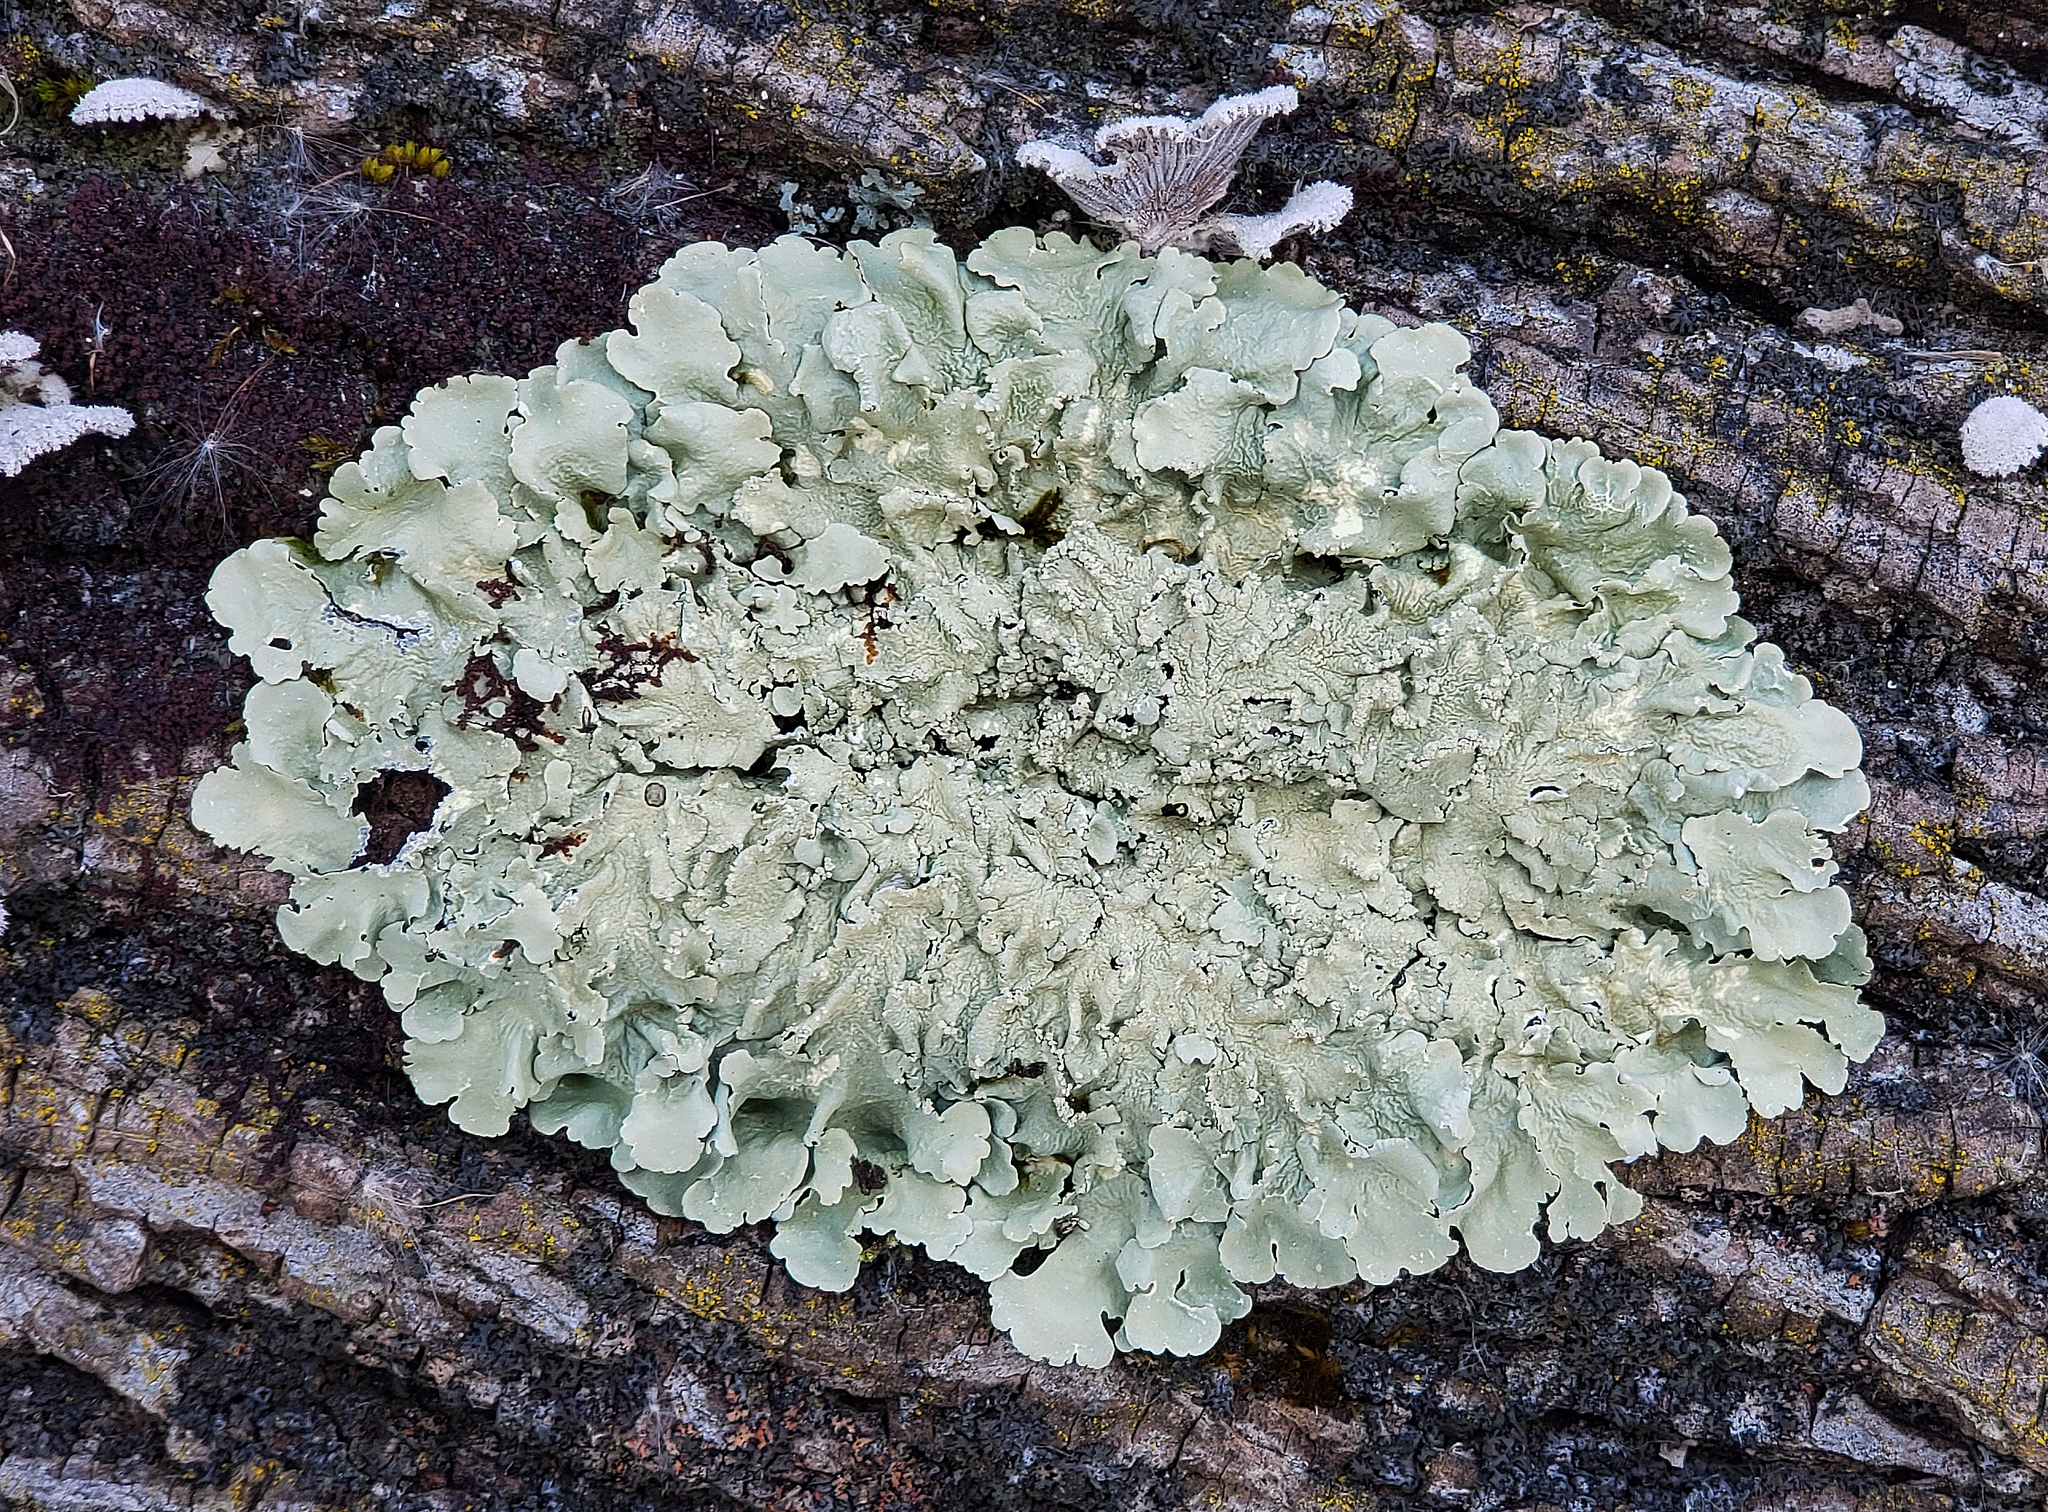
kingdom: Fungi
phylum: Ascomycota
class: Lecanoromycetes
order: Lecanorales
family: Parmeliaceae
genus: Flavoparmelia
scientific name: Flavoparmelia caperata
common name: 40-mile per hour lichen
